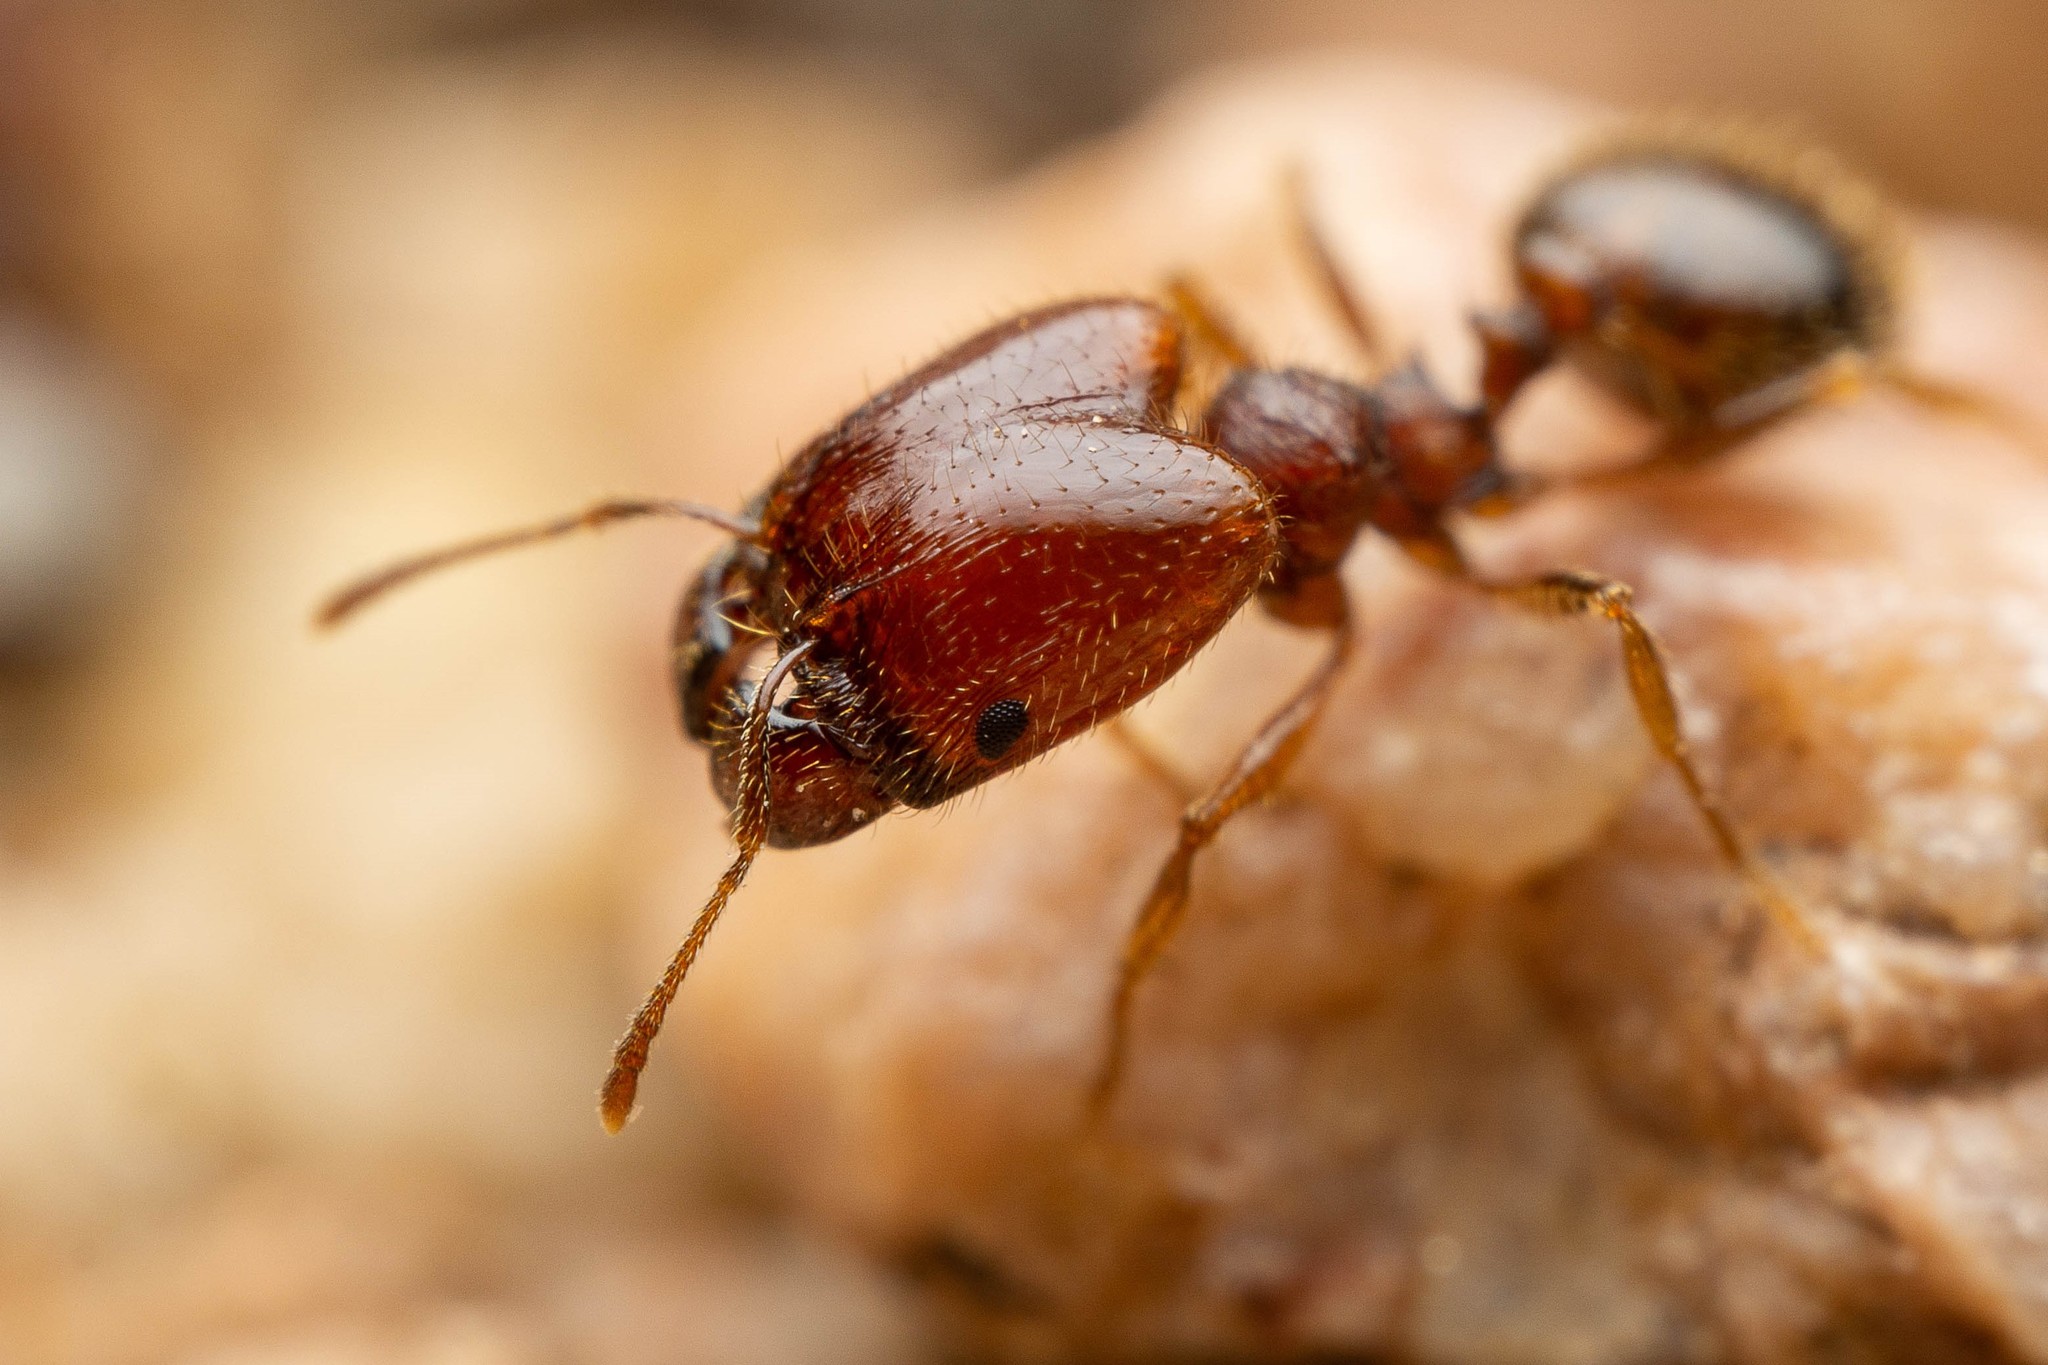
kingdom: Animalia
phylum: Arthropoda
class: Insecta
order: Hymenoptera
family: Formicidae
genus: Pheidole
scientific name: Pheidole xerophila
